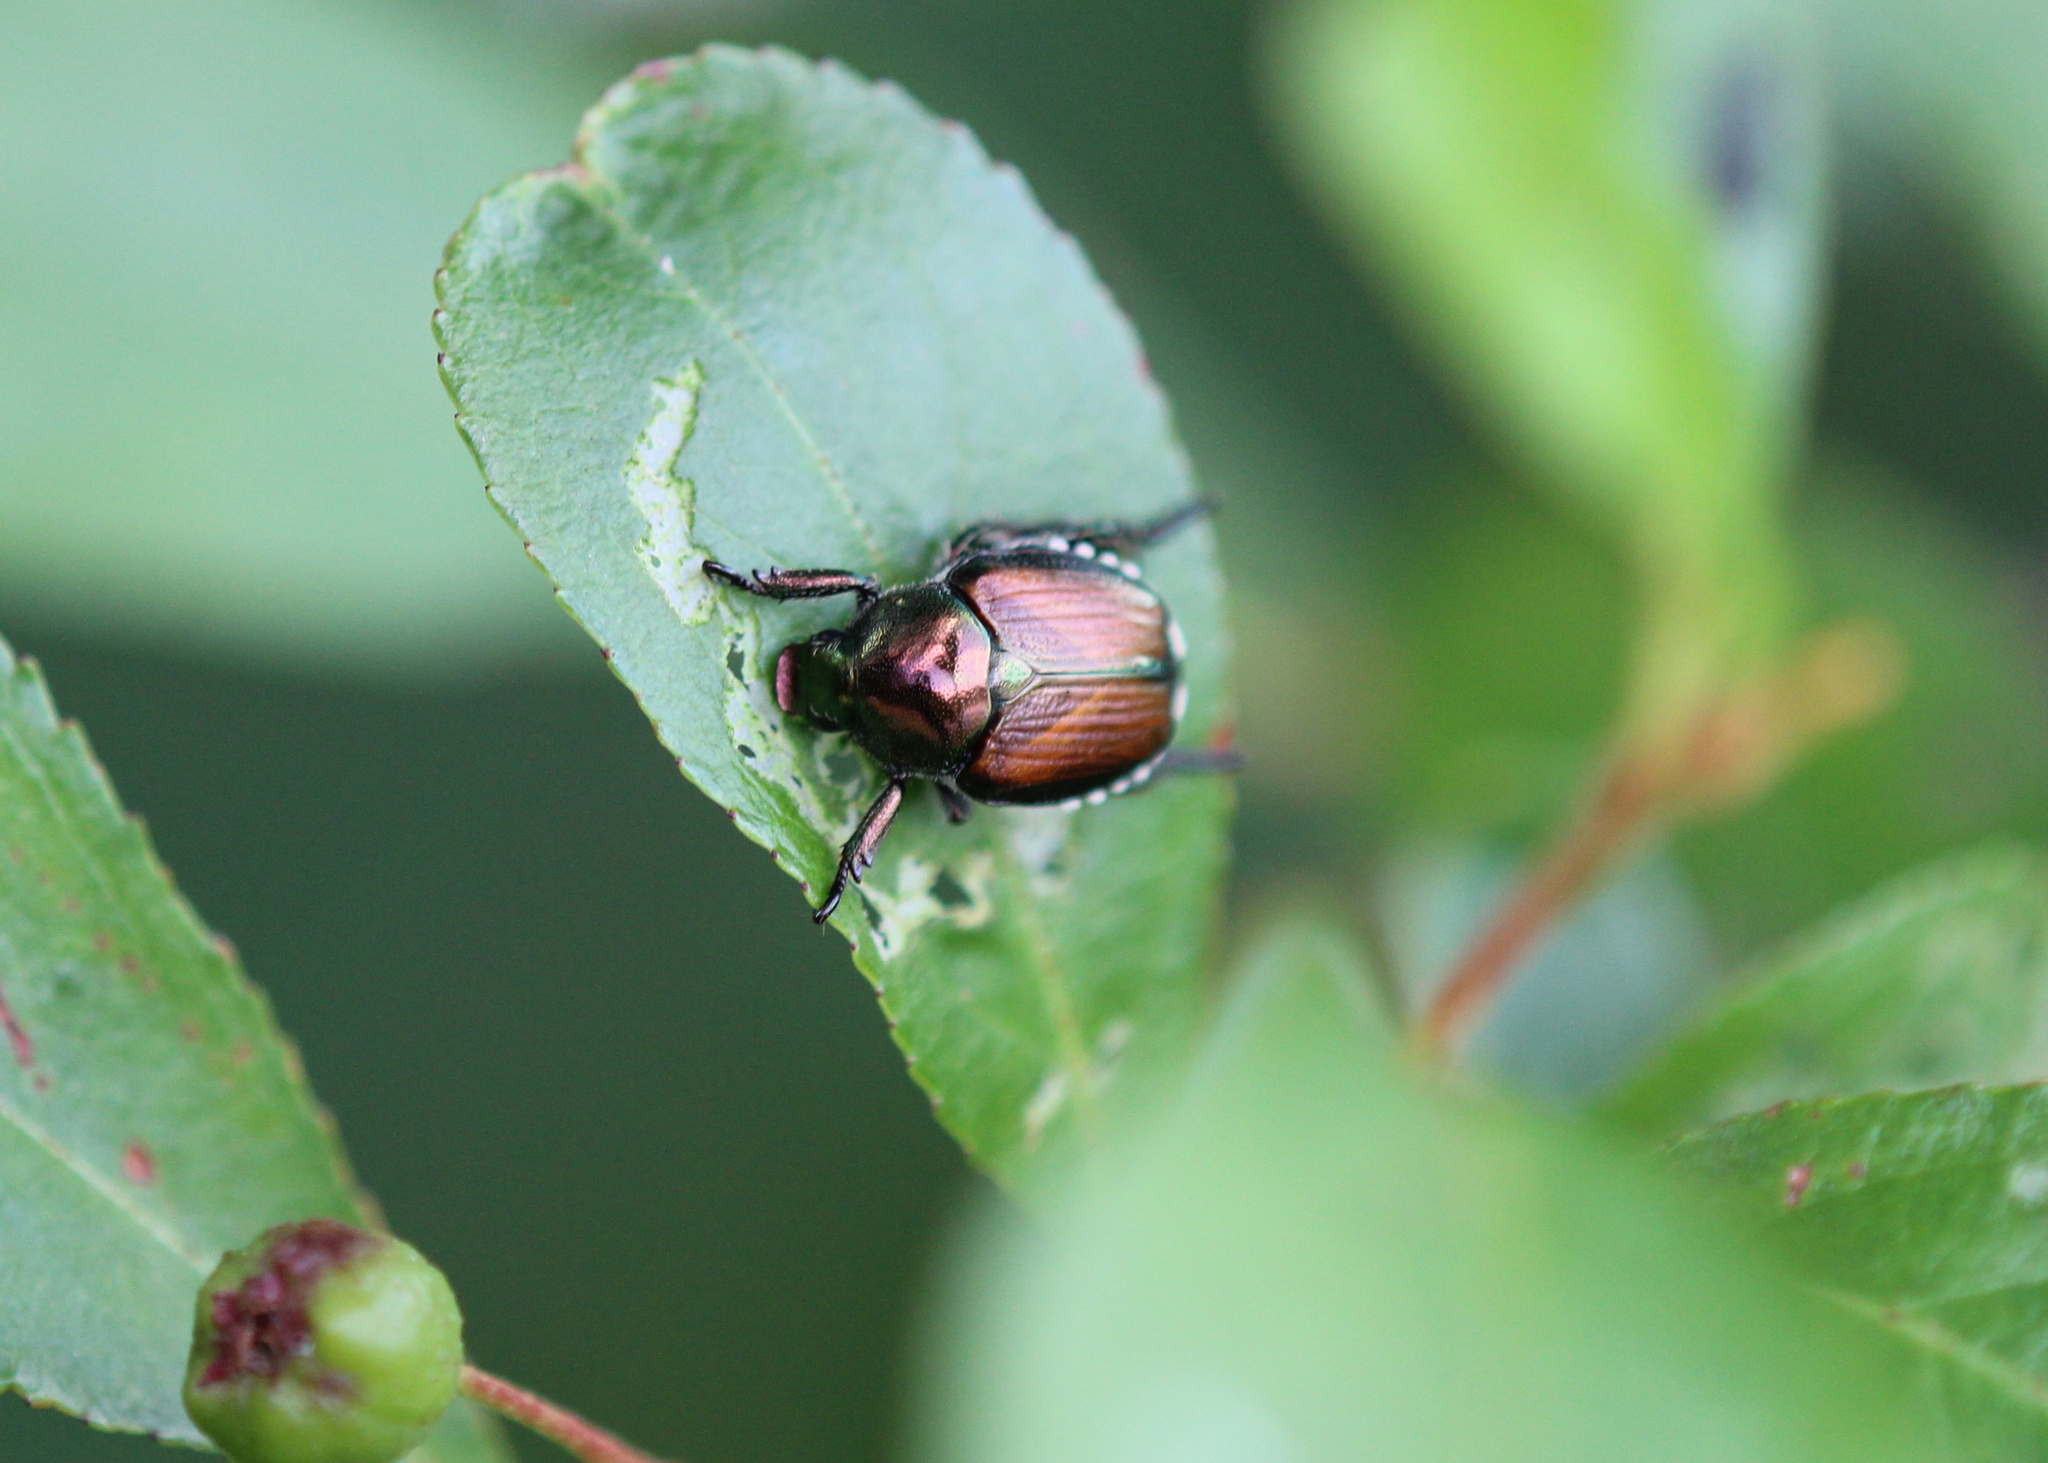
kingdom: Animalia
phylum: Arthropoda
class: Insecta
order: Coleoptera
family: Scarabaeidae
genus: Popillia
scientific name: Popillia japonica
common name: Japanese beetle
